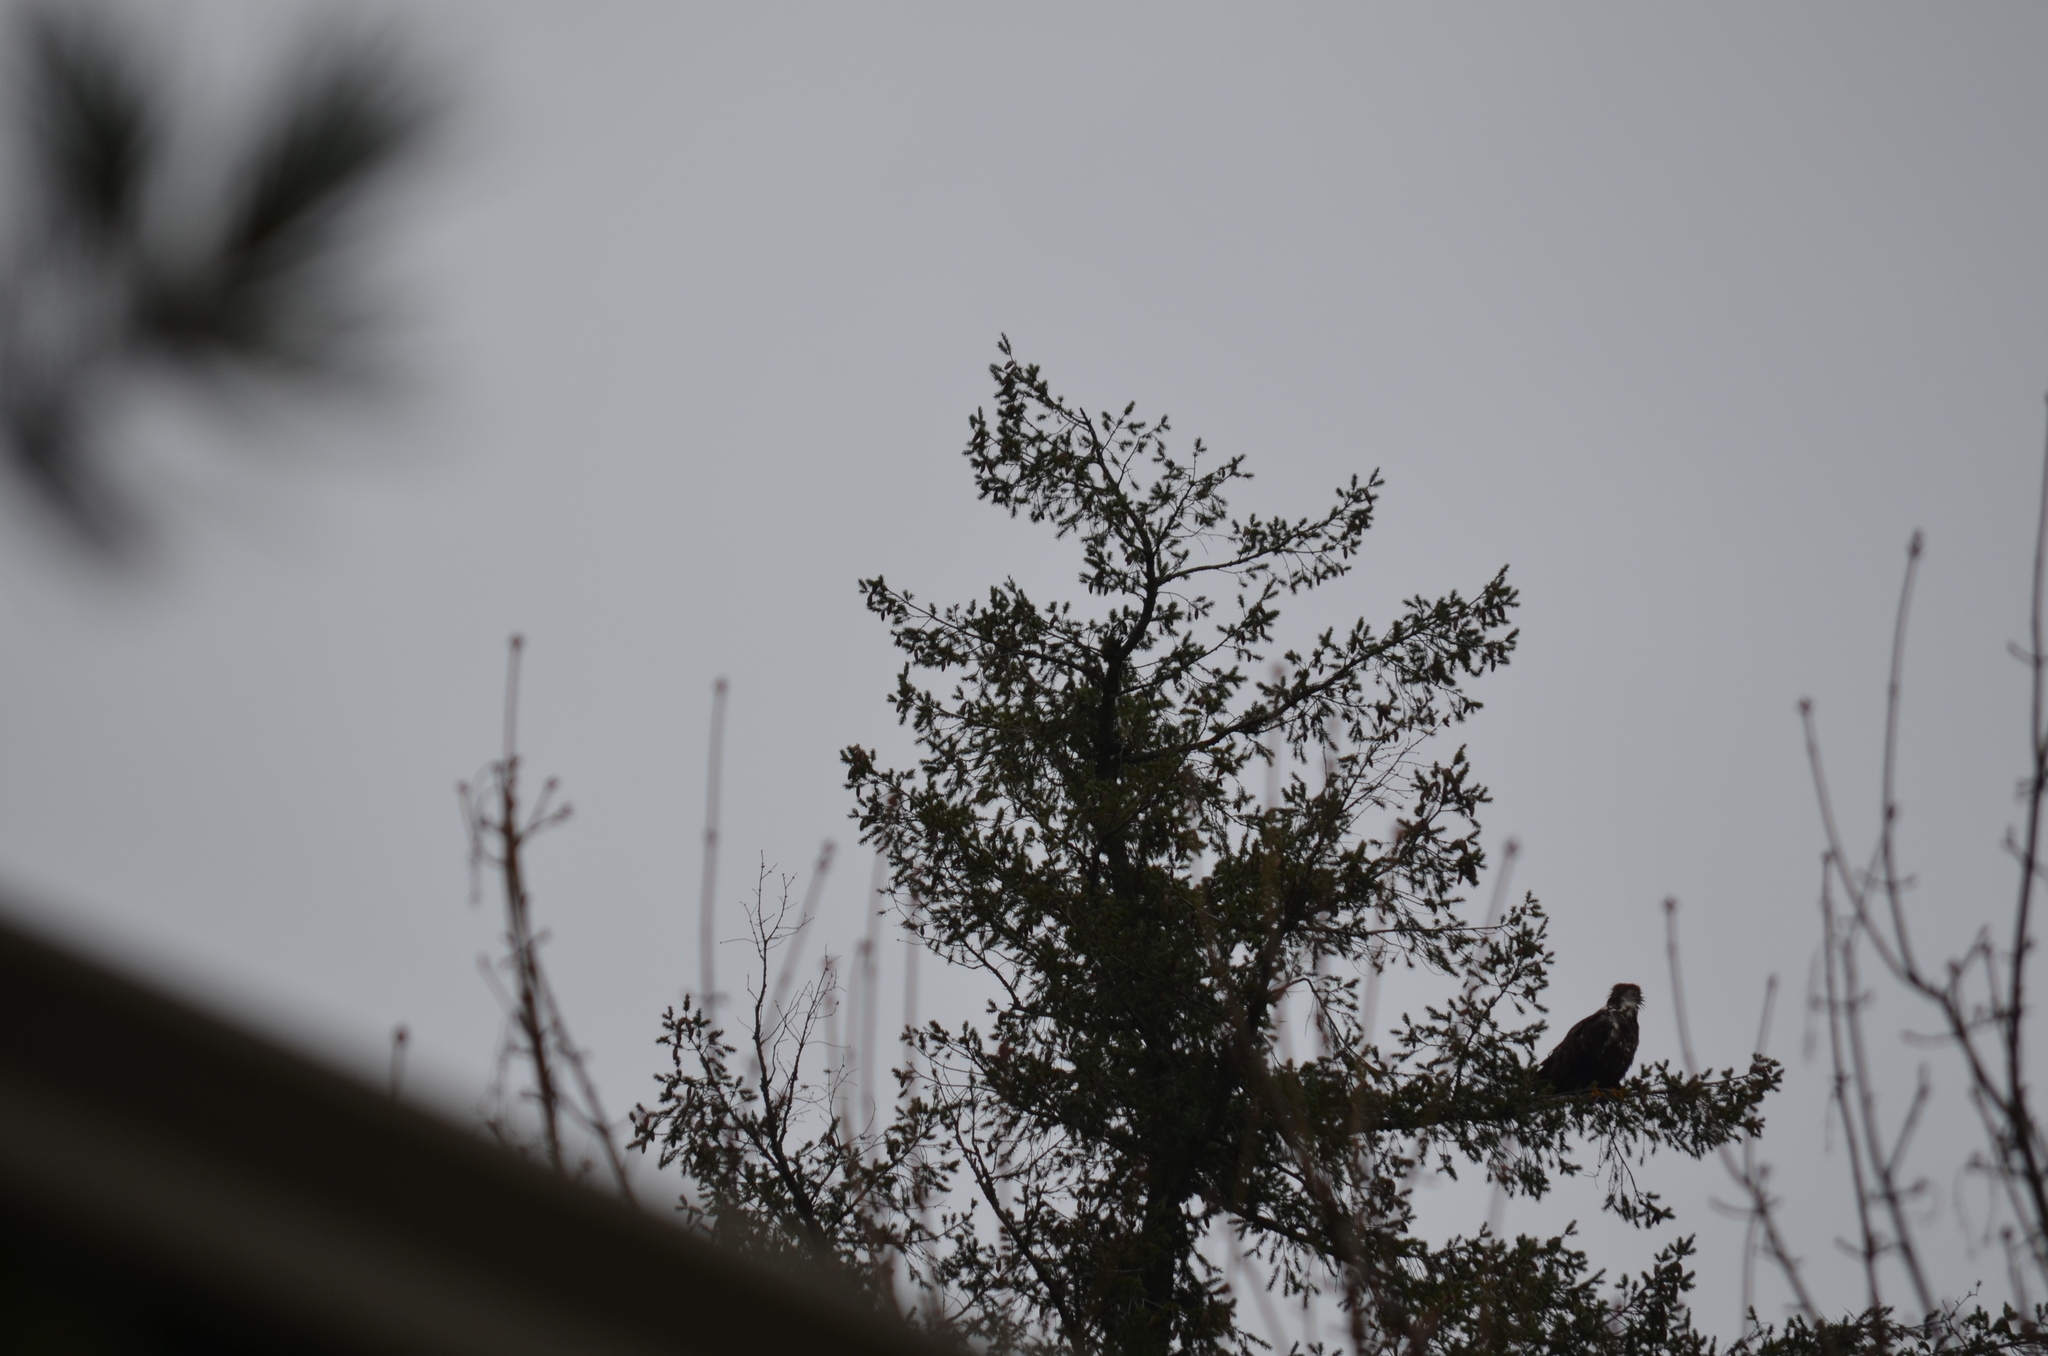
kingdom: Animalia
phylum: Chordata
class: Aves
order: Accipitriformes
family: Accipitridae
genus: Haliaeetus
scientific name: Haliaeetus leucocephalus
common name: Bald eagle
